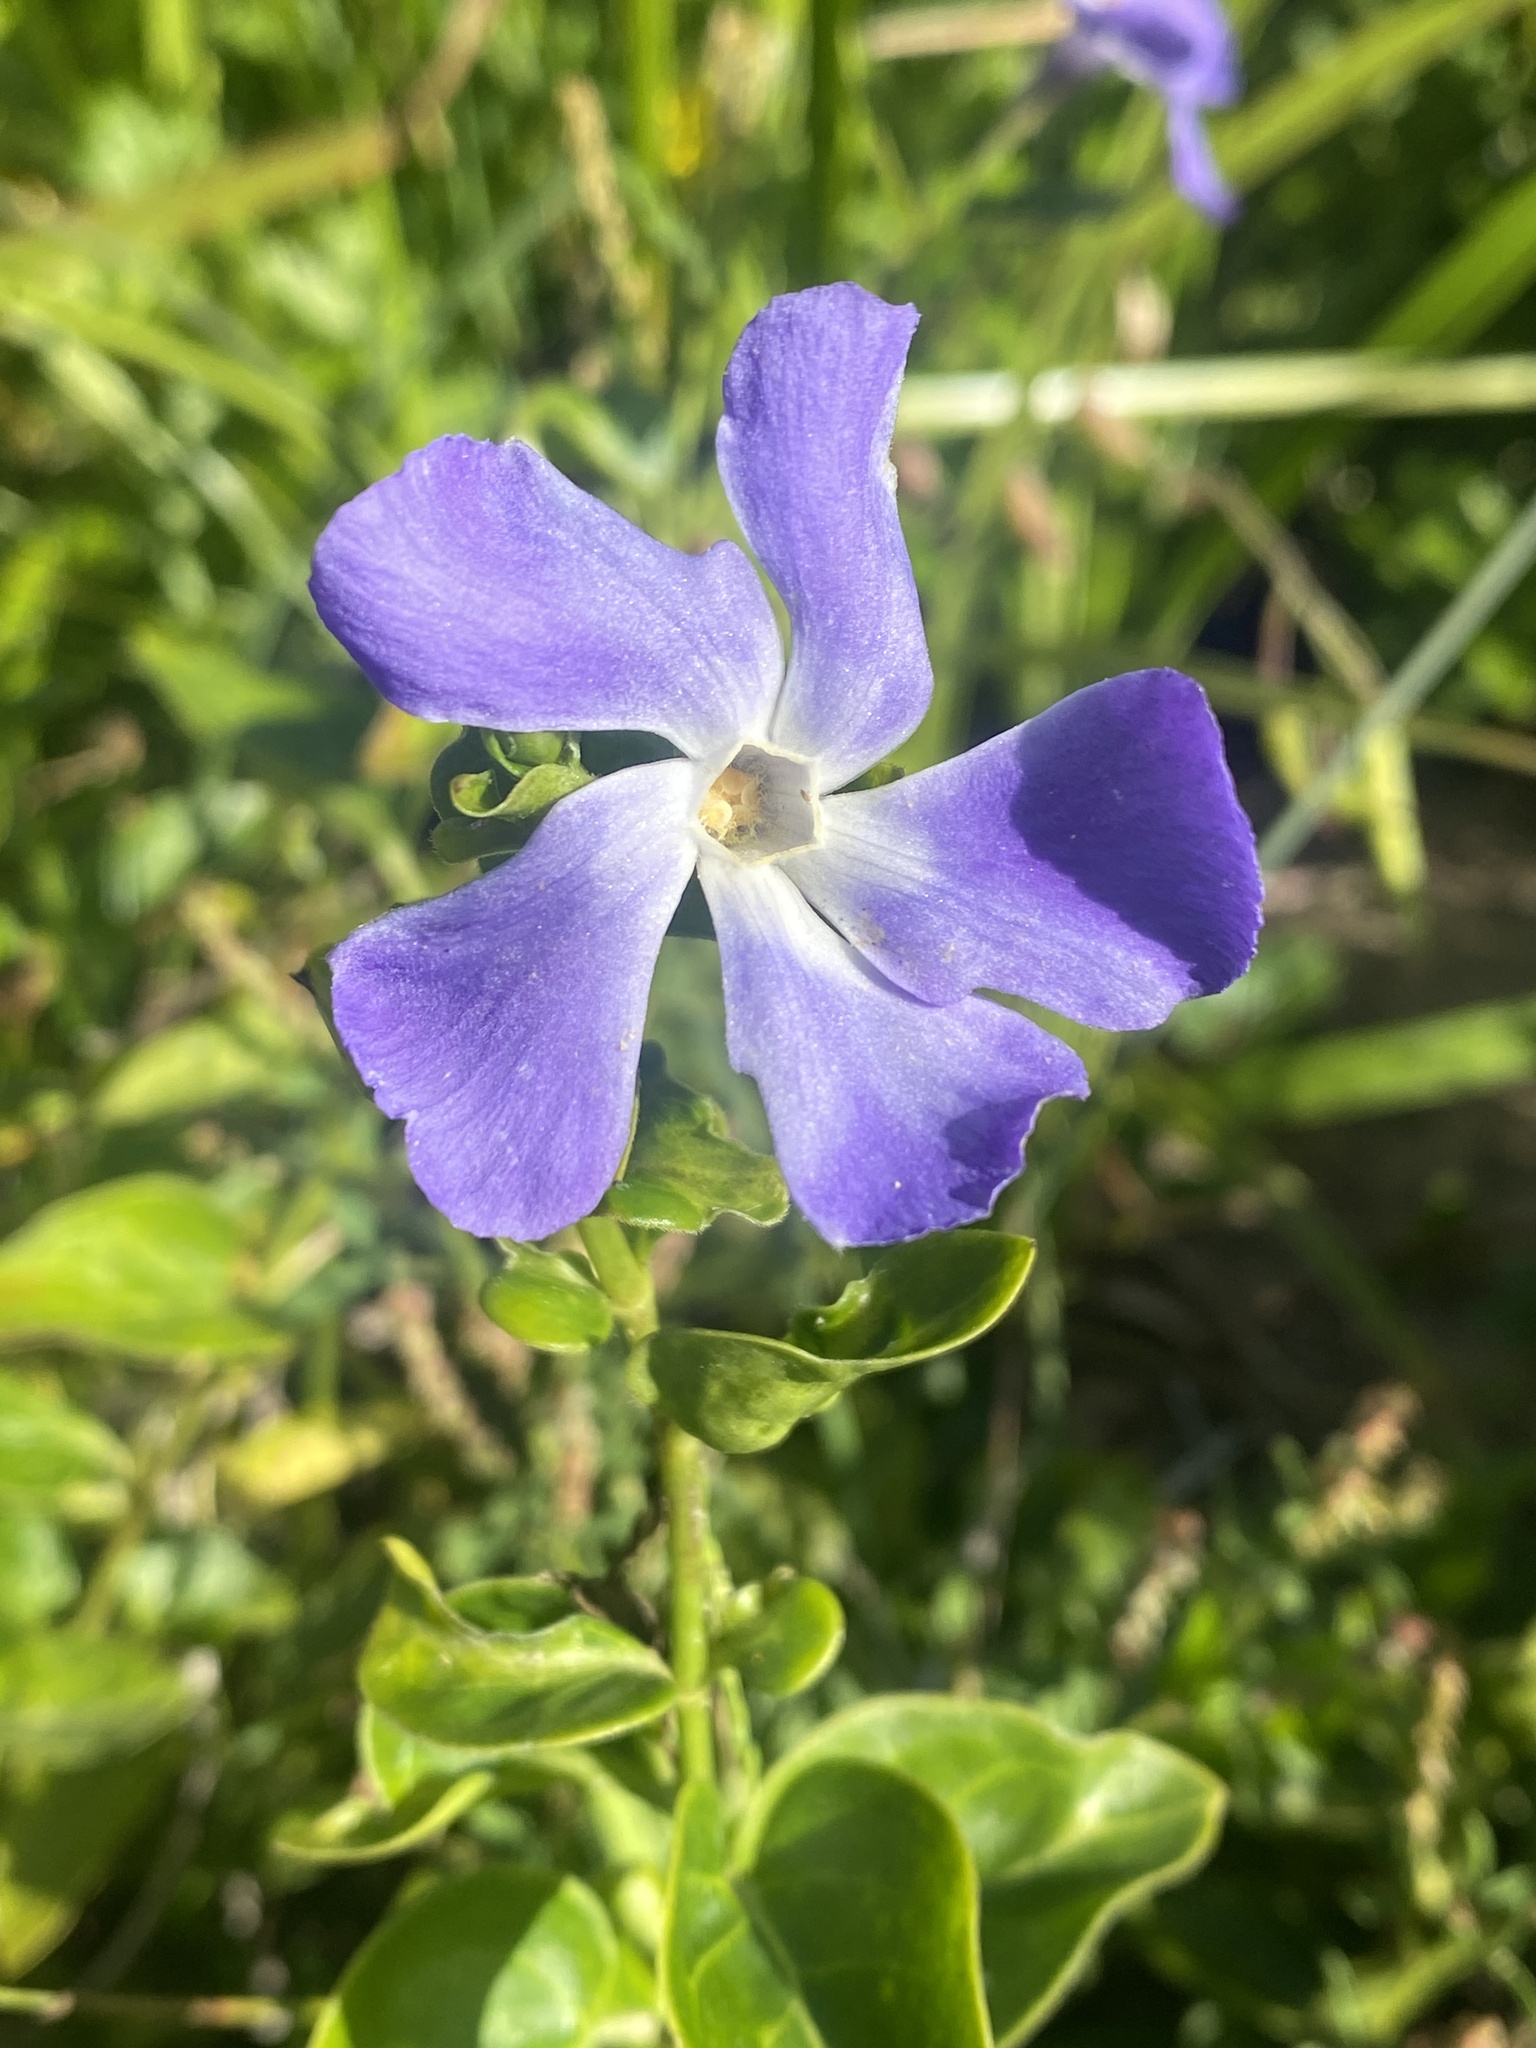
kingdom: Plantae
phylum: Tracheophyta
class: Magnoliopsida
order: Gentianales
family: Apocynaceae
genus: Vinca
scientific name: Vinca major
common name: Greater periwinkle
